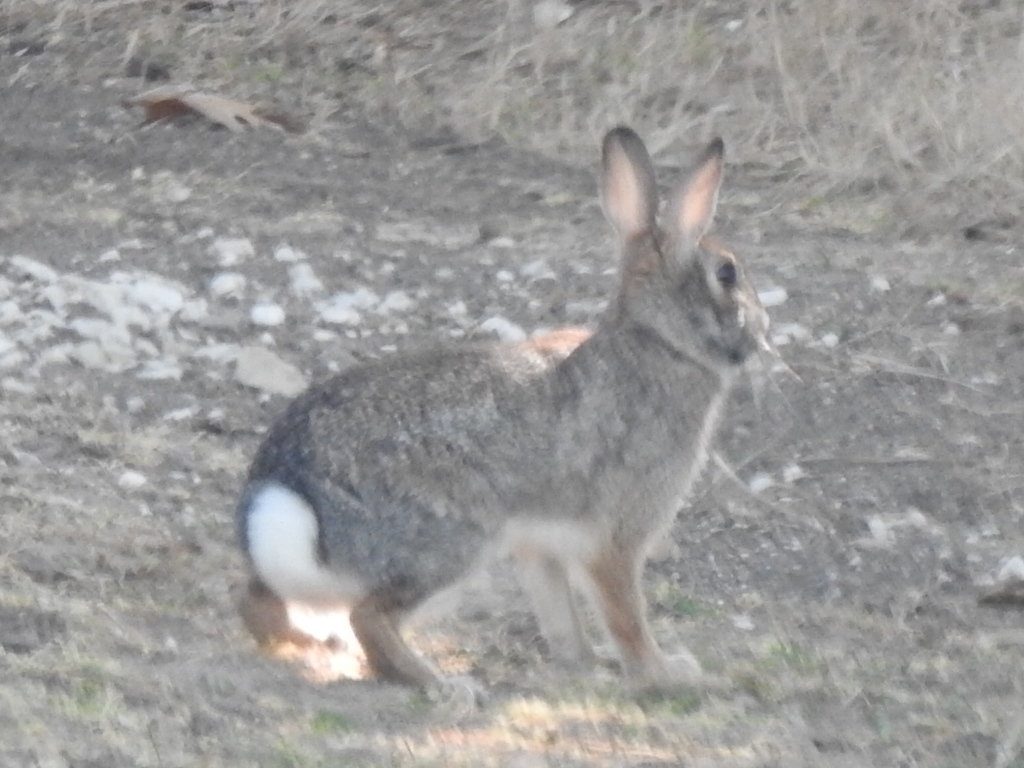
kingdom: Animalia
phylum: Chordata
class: Mammalia
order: Lagomorpha
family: Leporidae
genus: Sylvilagus
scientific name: Sylvilagus floridanus
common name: Eastern cottontail
